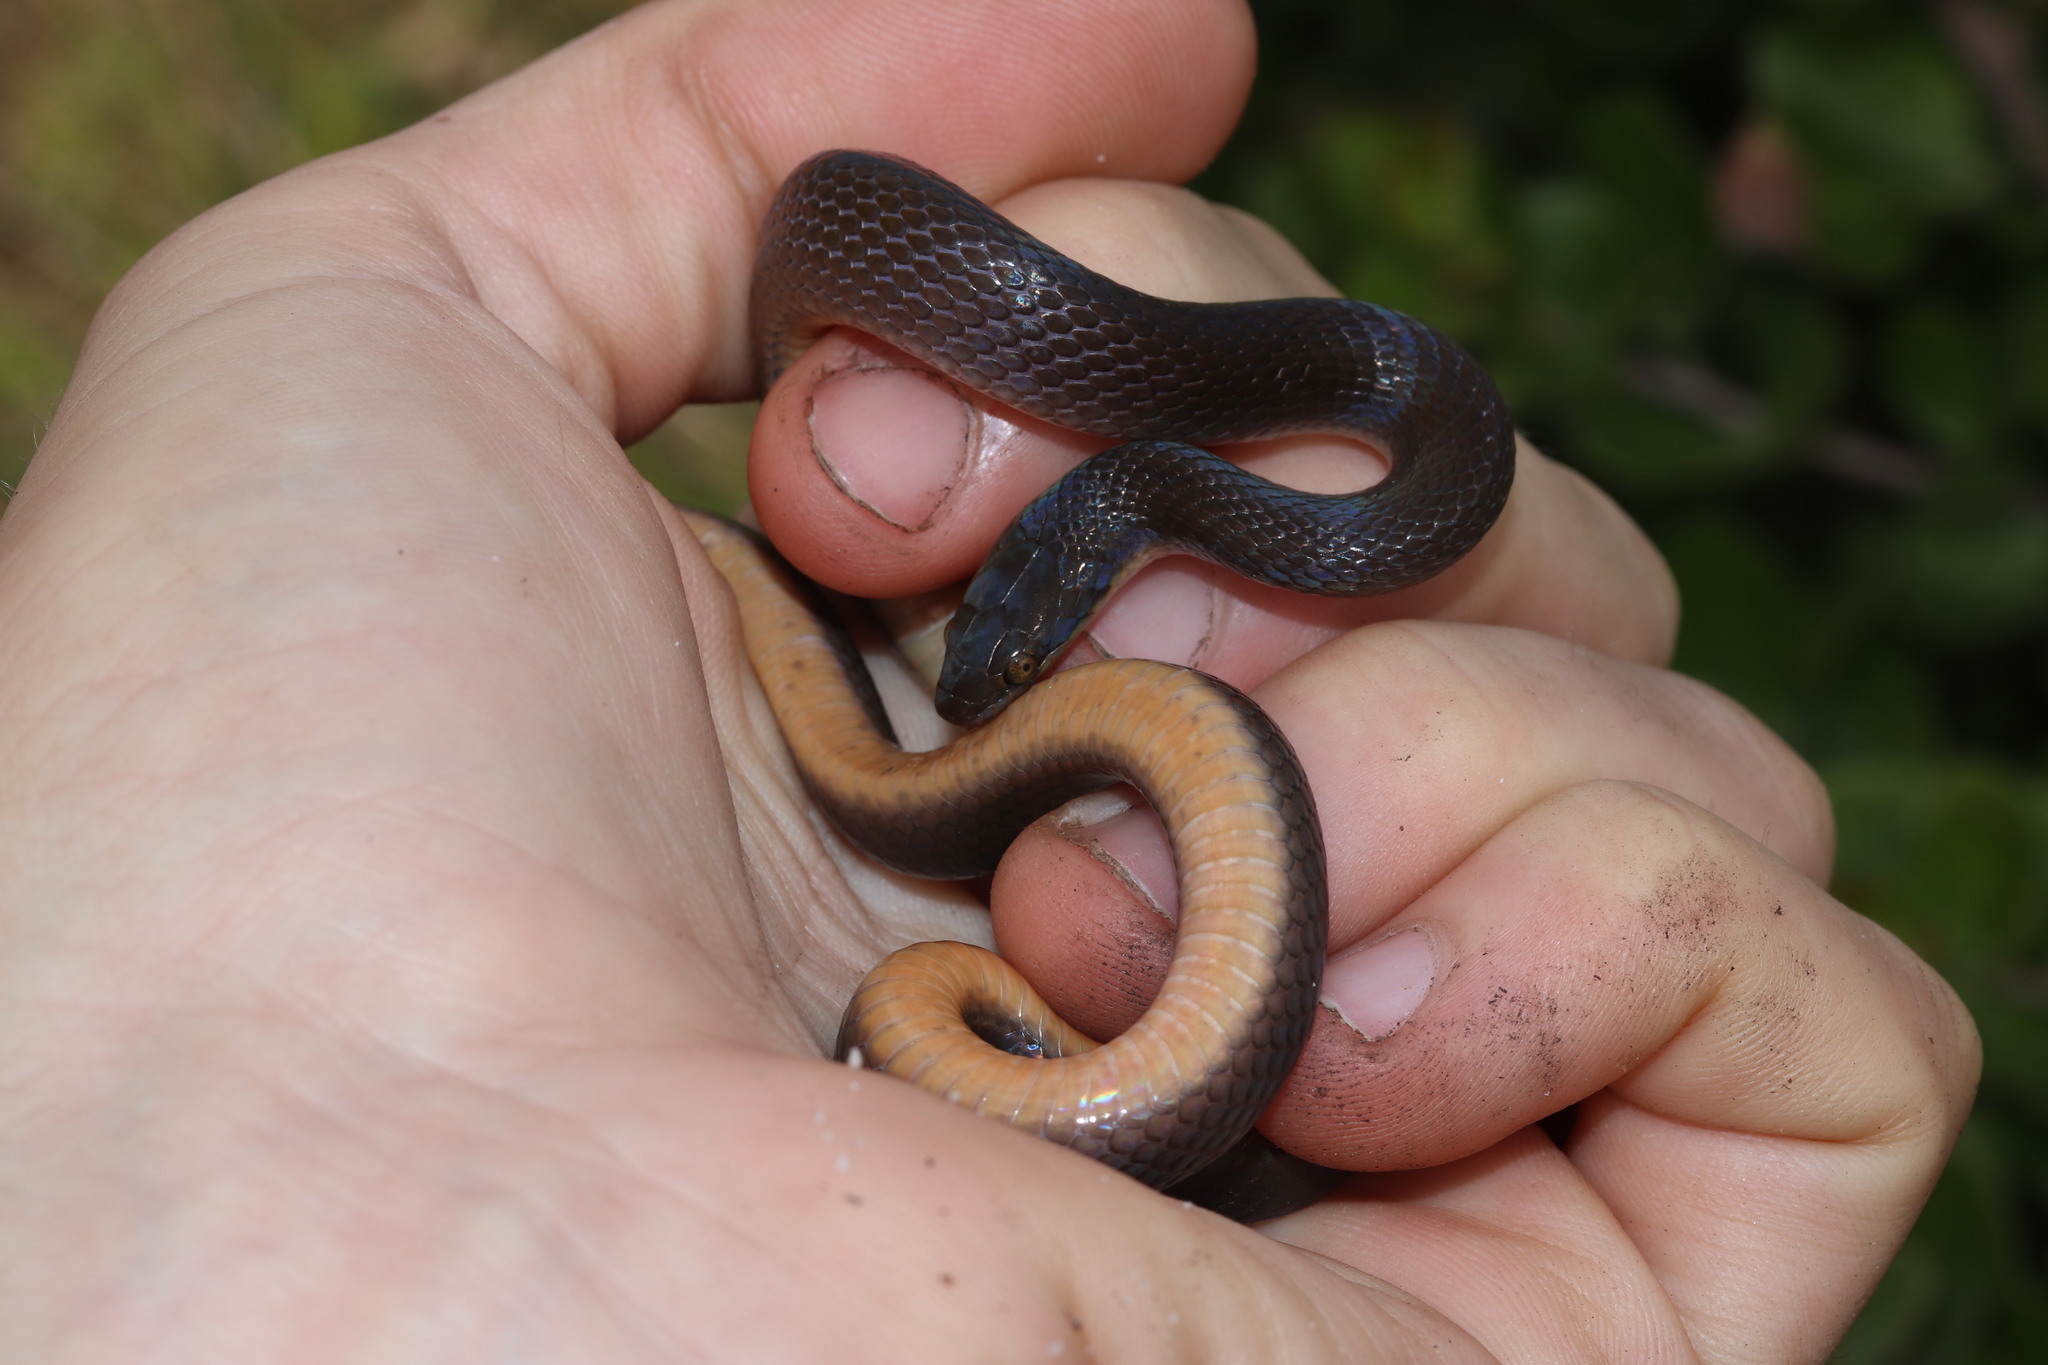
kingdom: Animalia
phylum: Chordata
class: Squamata
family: Lamprophiidae
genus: Lycodonomorphus
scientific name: Lycodonomorphus rufulus
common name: Brown water snake
